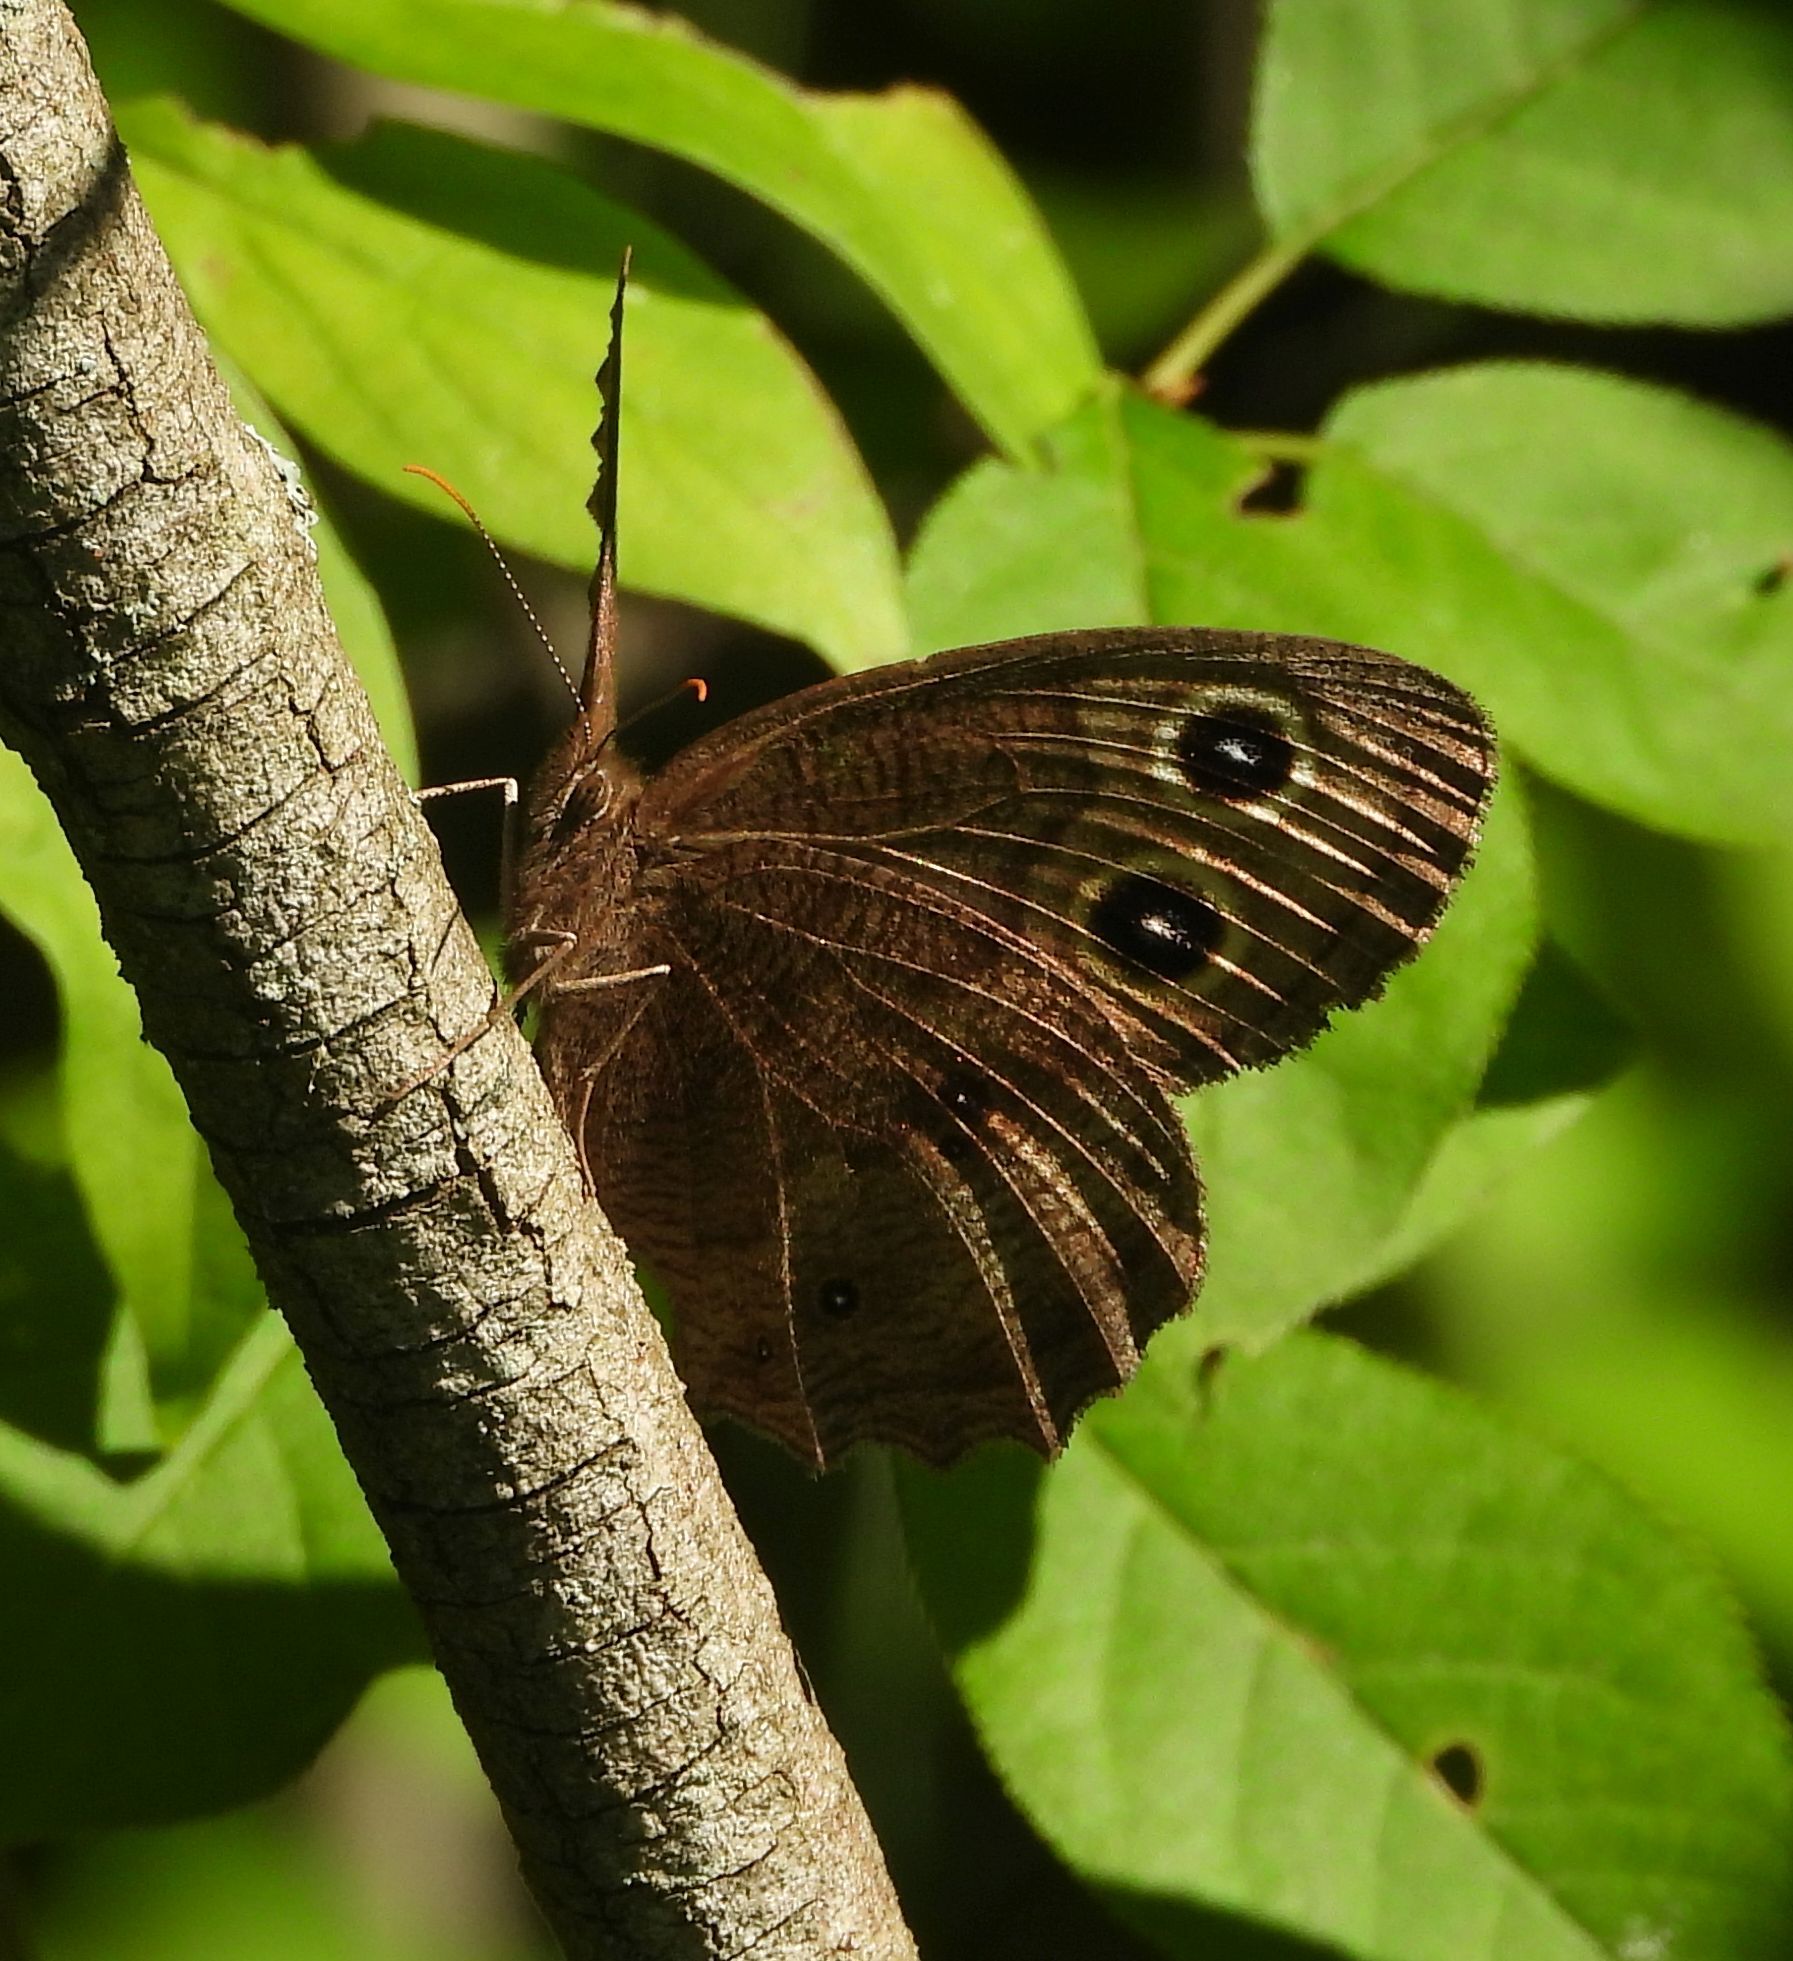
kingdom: Animalia
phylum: Arthropoda
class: Insecta
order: Lepidoptera
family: Nymphalidae
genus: Cercyonis
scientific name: Cercyonis pegala
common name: Common wood-nymph
